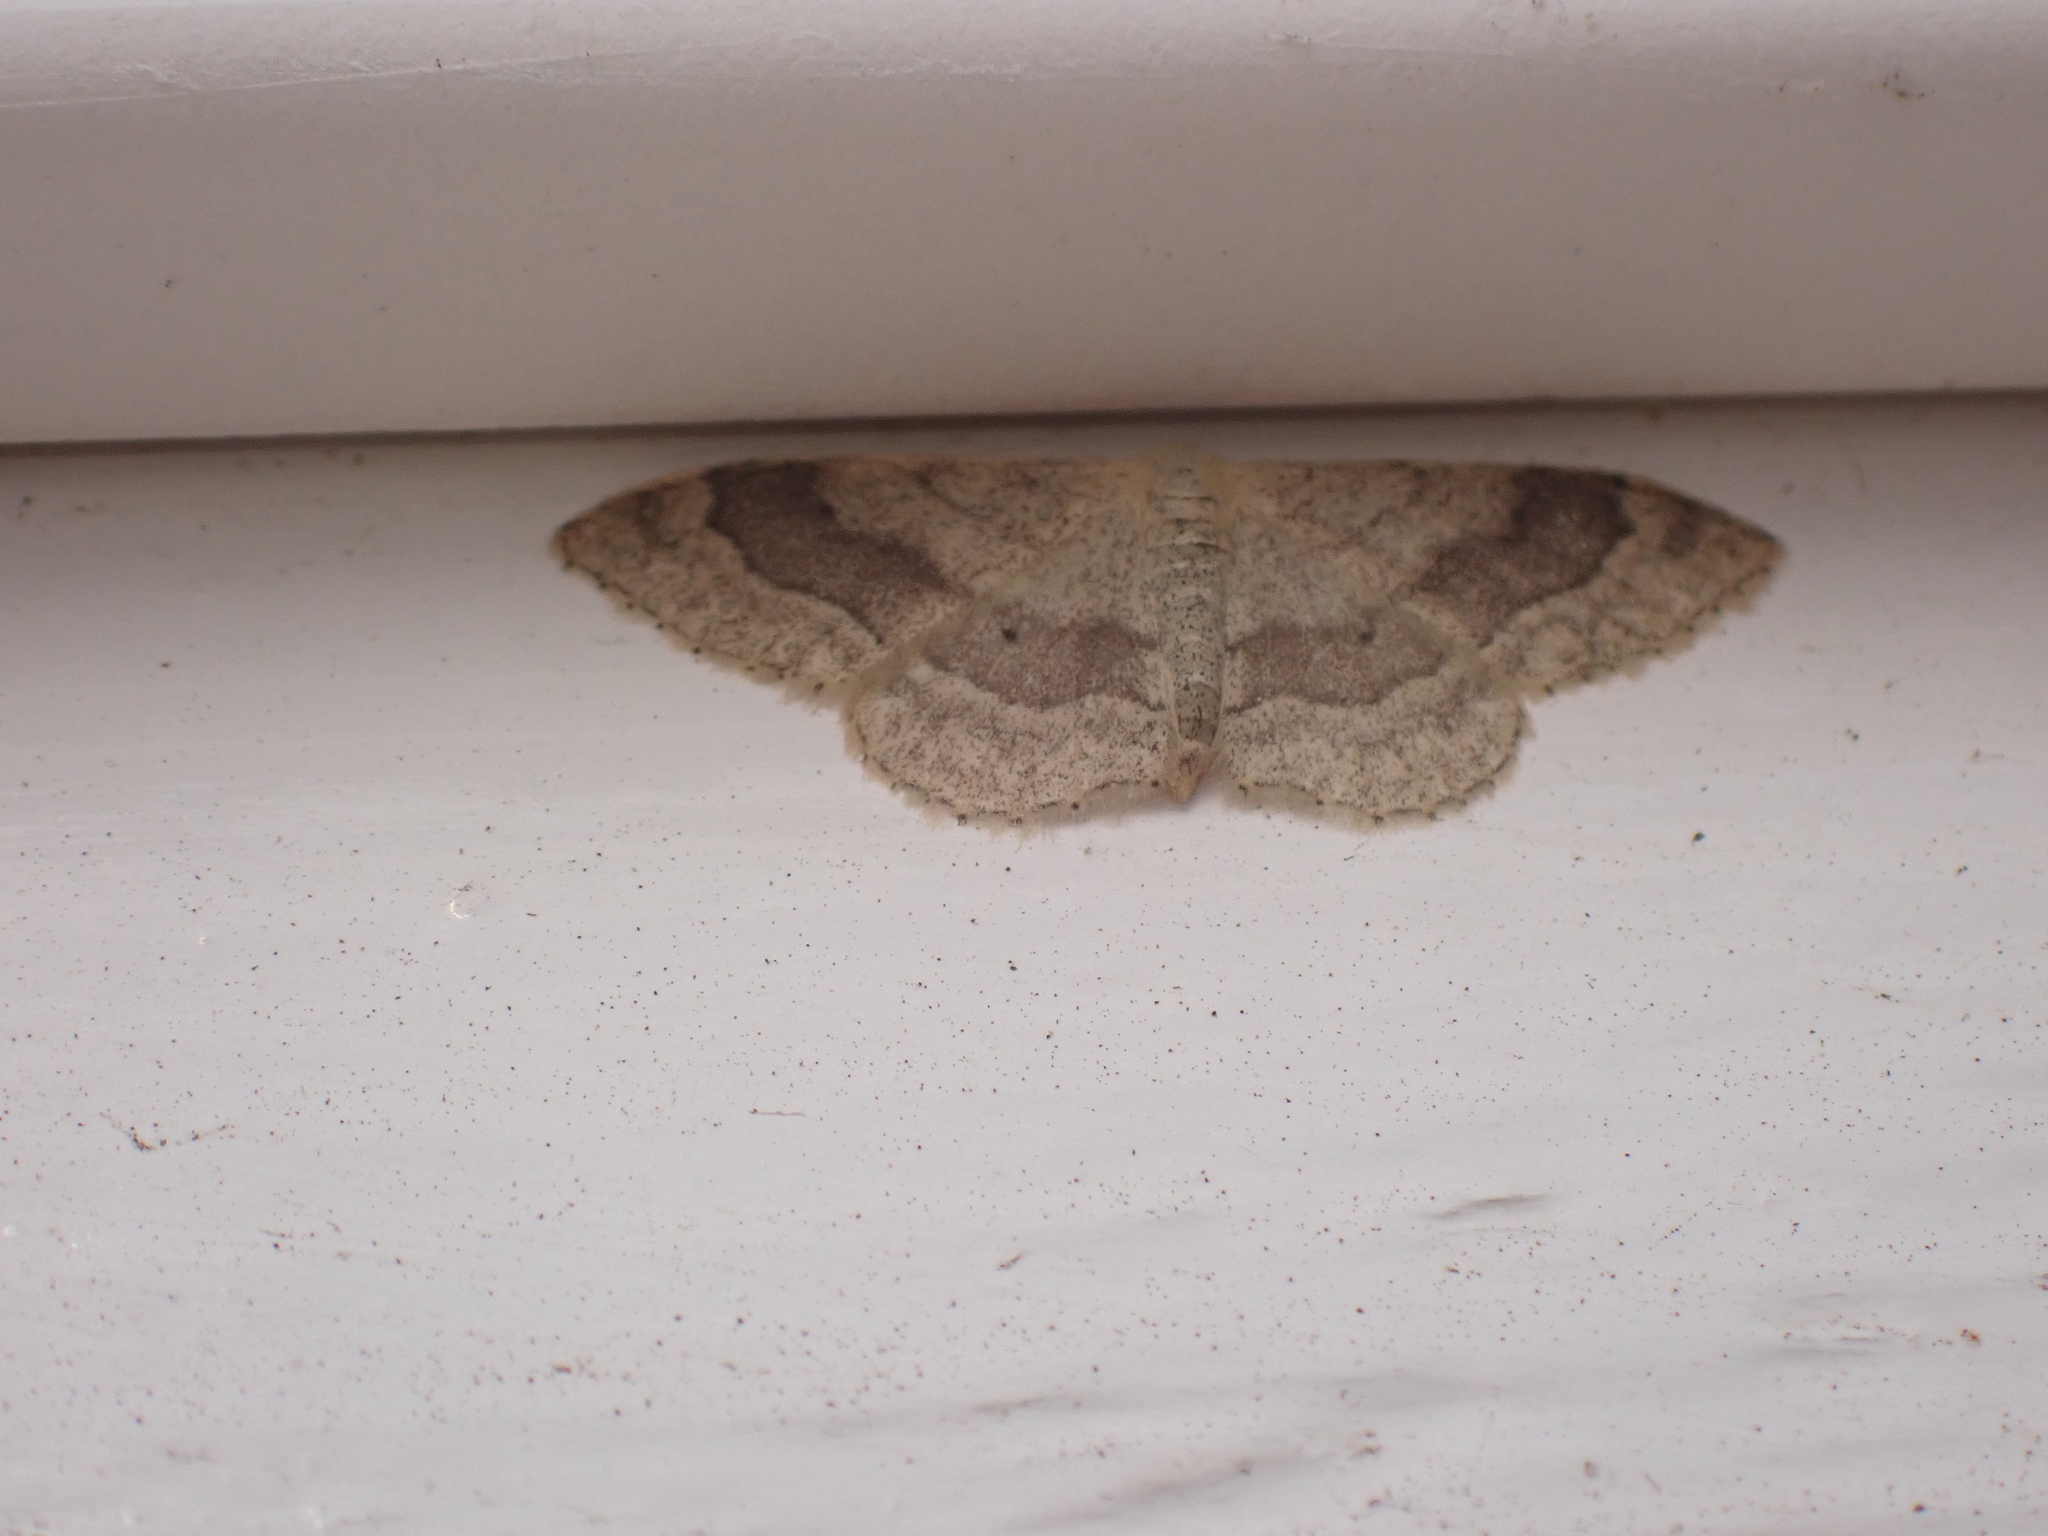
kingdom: Animalia
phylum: Arthropoda
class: Insecta
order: Lepidoptera
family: Geometridae
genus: Idaea
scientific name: Idaea aversata
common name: Riband wave
